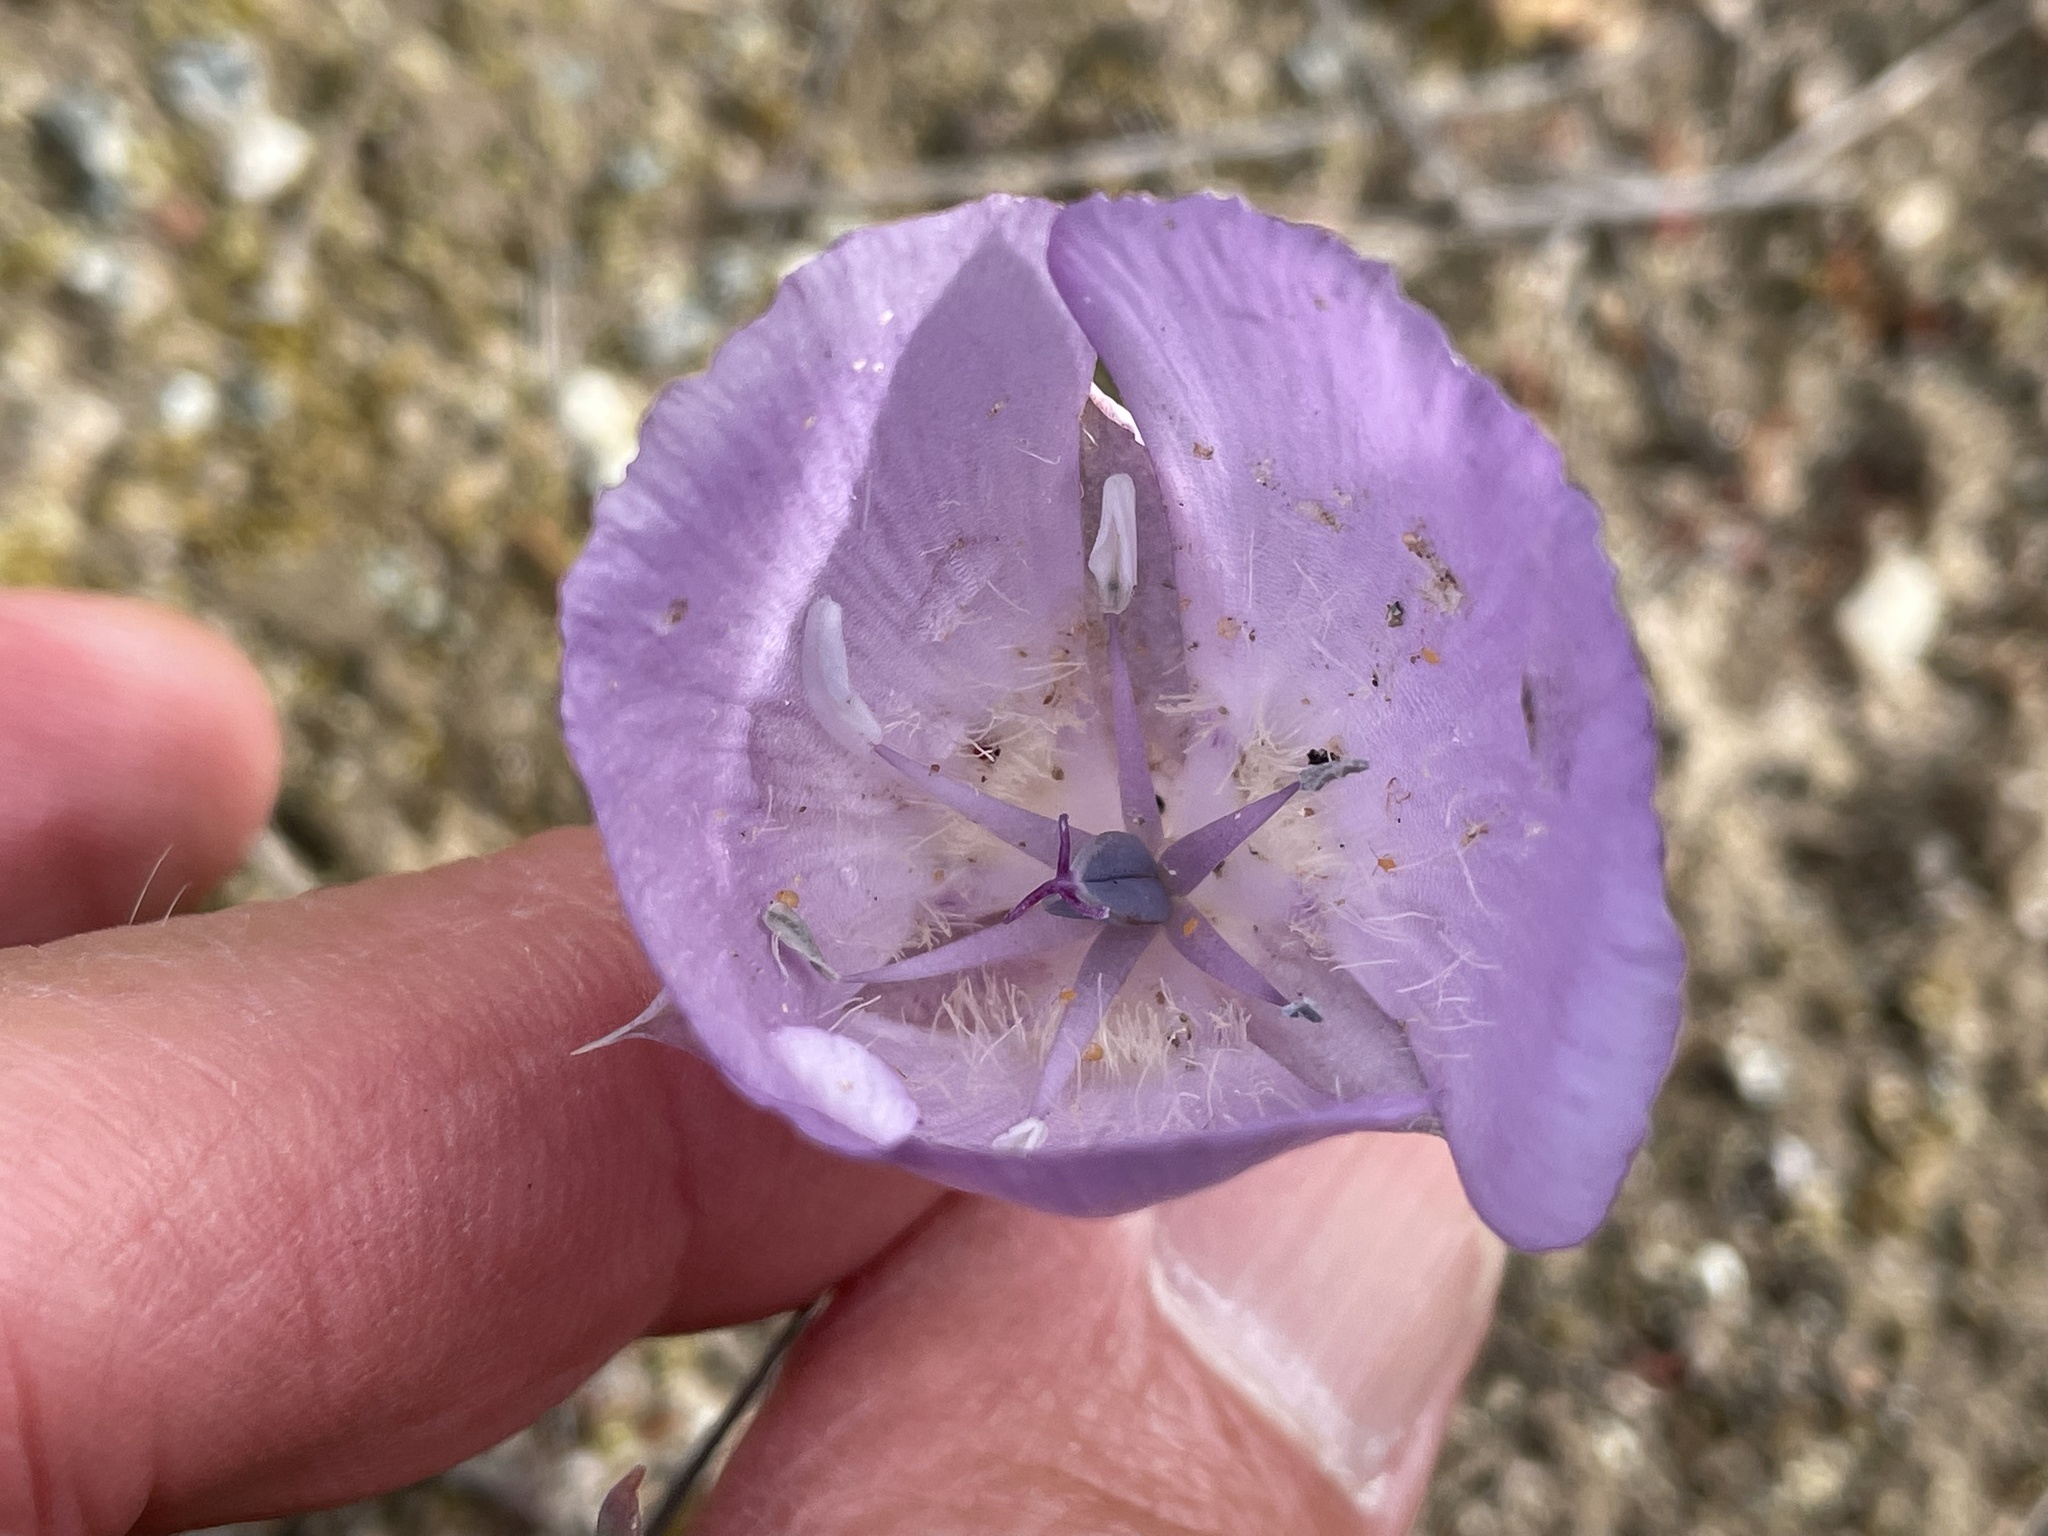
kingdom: Plantae
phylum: Tracheophyta
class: Liliopsida
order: Liliales
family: Liliaceae
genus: Calochortus
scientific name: Calochortus uniflorus
